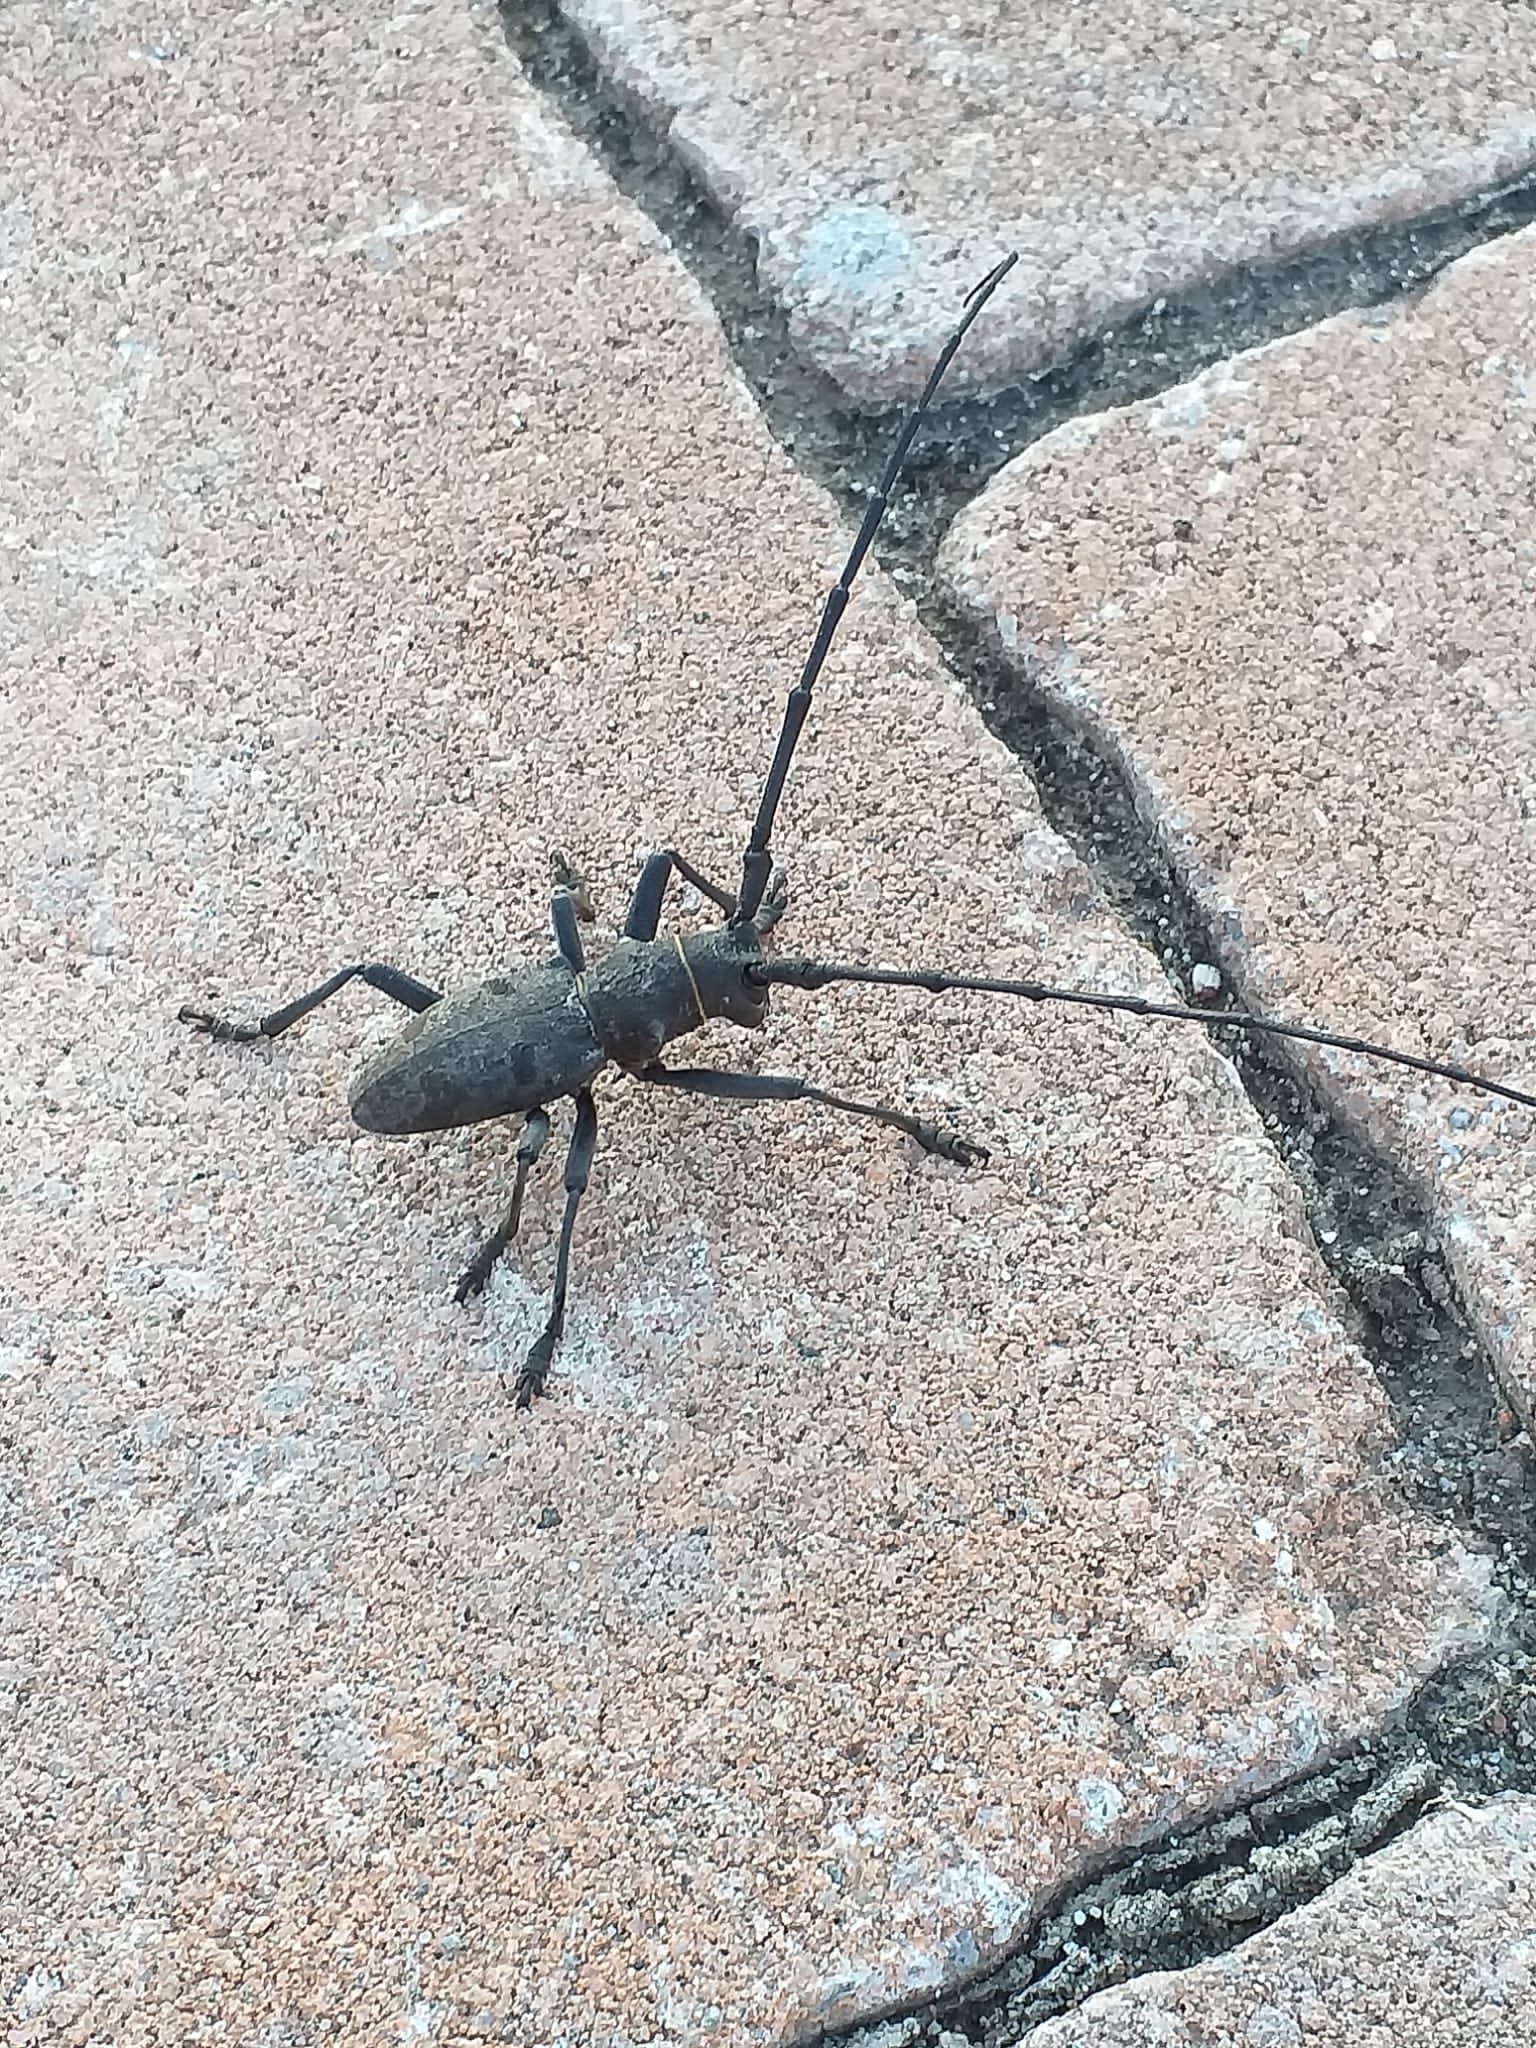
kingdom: Animalia
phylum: Arthropoda
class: Insecta
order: Coleoptera
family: Cerambycidae
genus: Morimus
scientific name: Morimus asper
